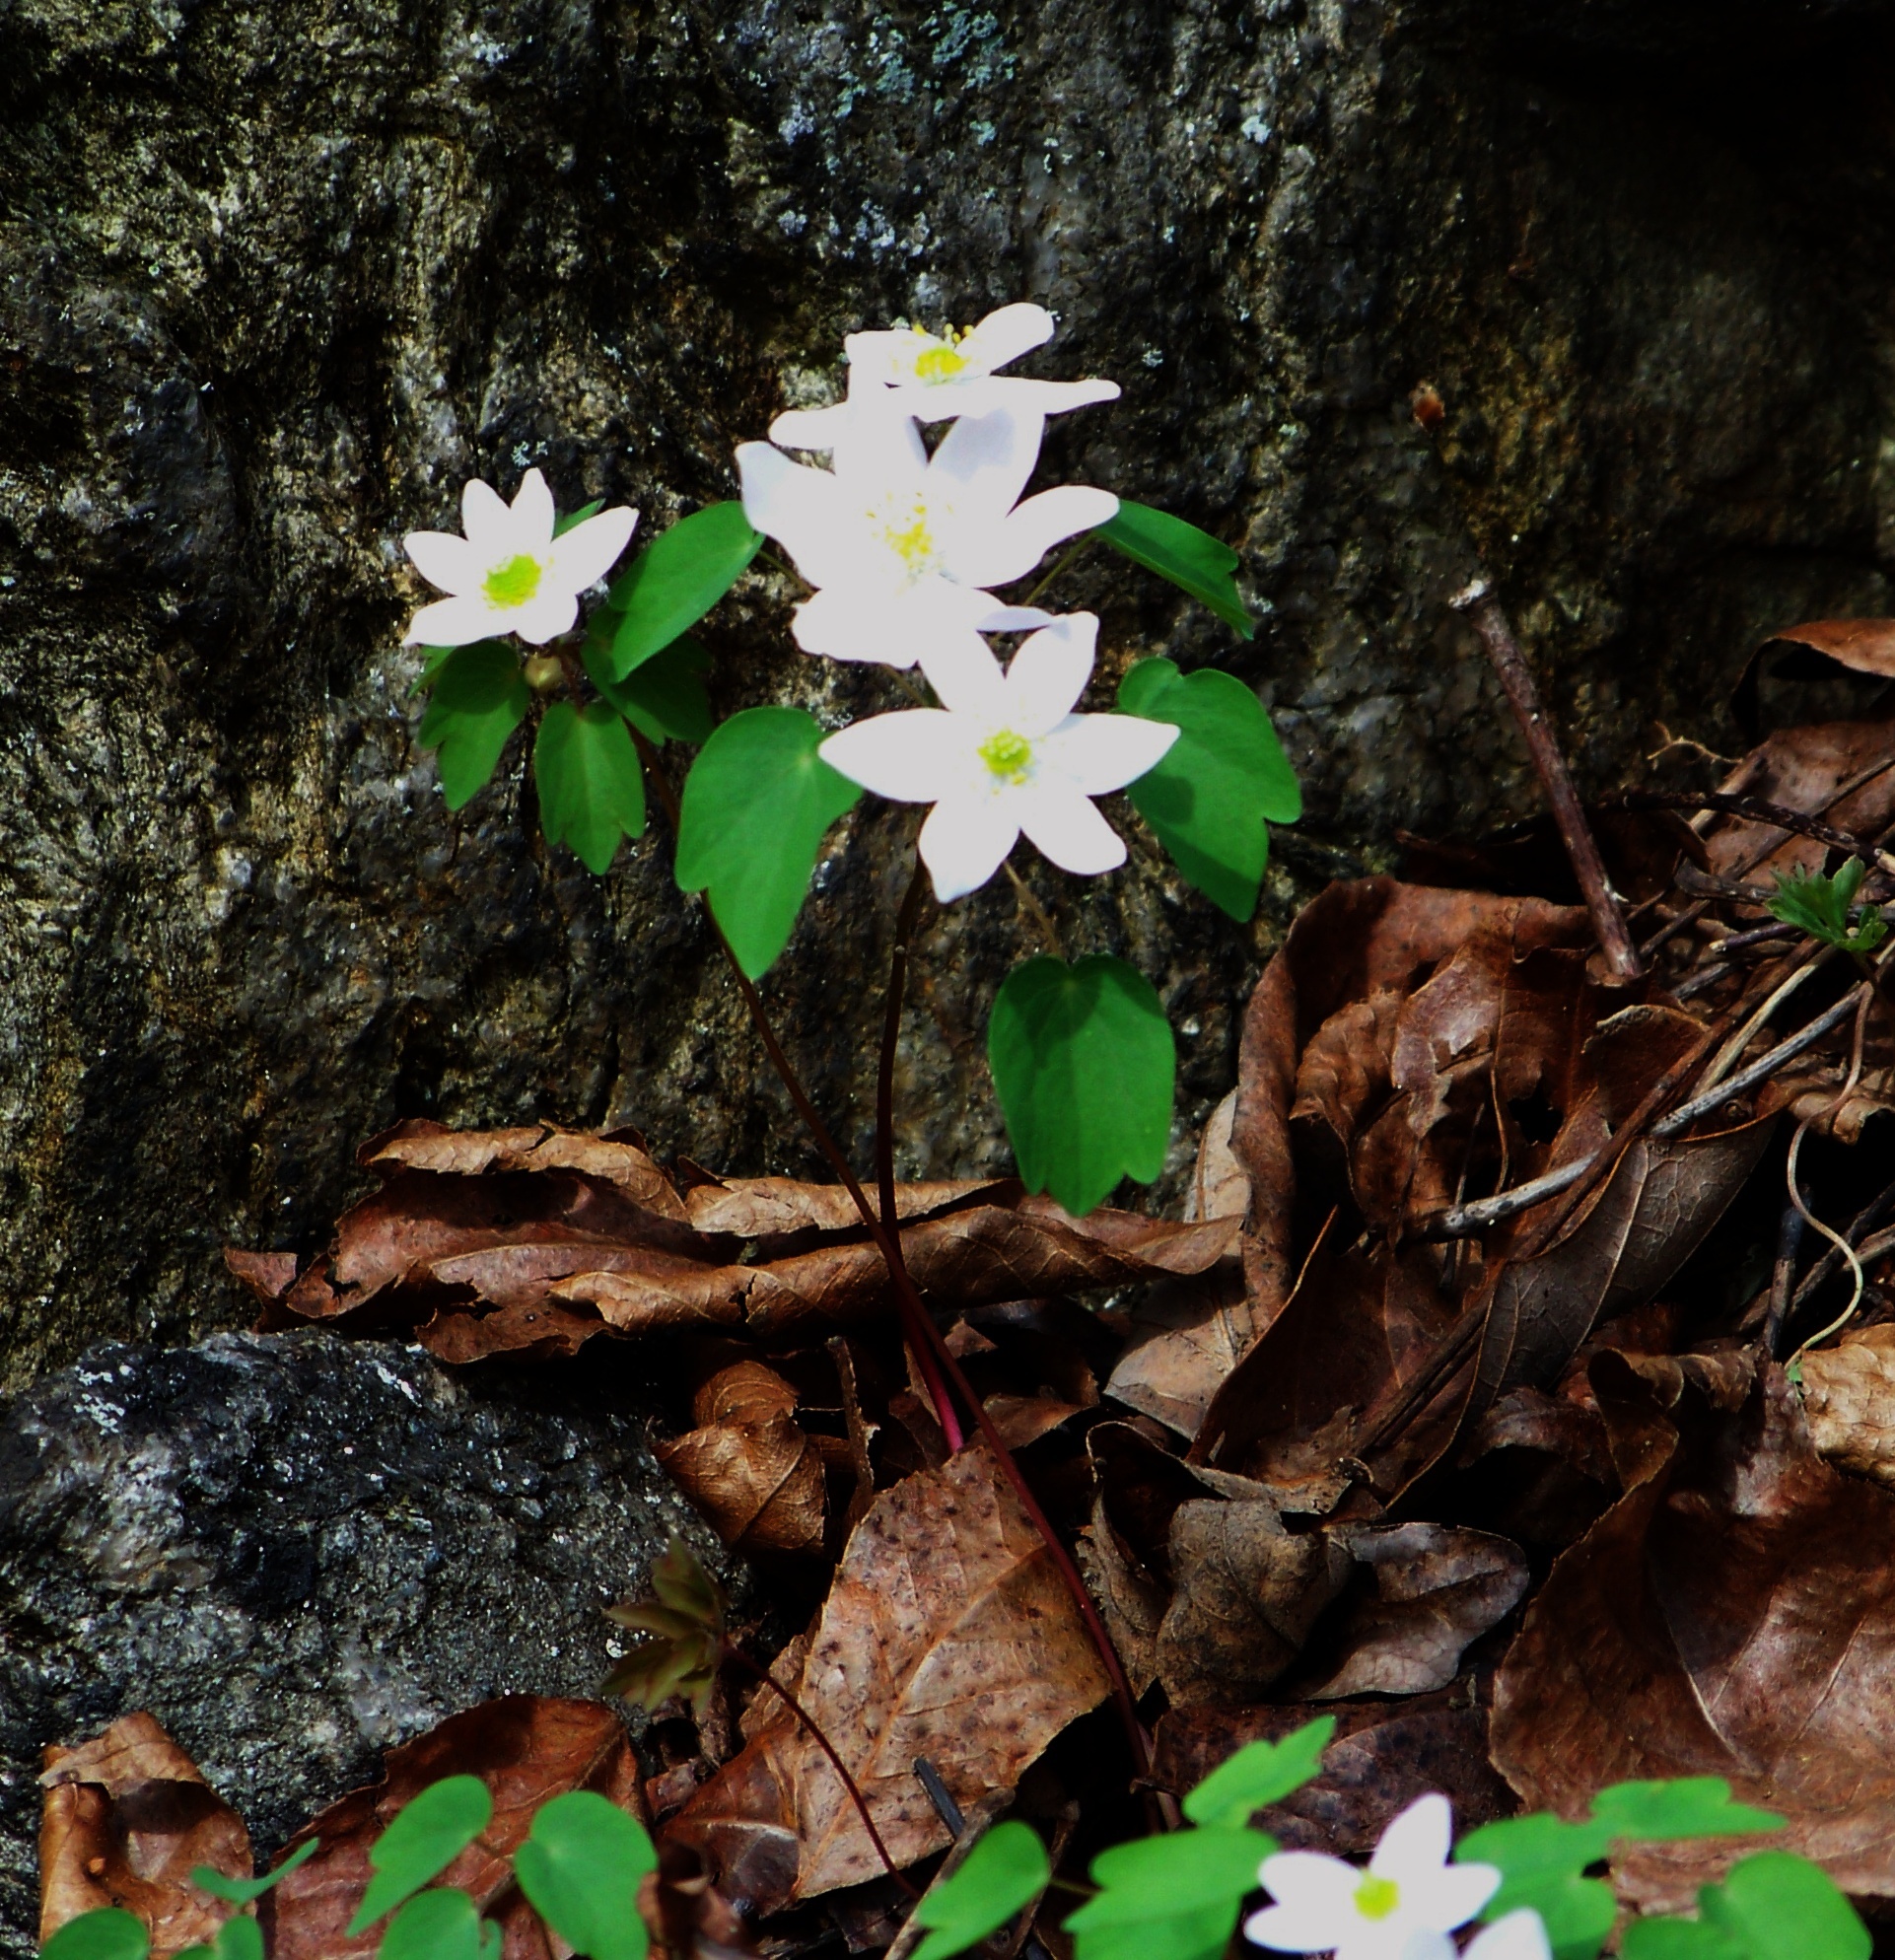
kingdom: Plantae
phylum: Tracheophyta
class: Magnoliopsida
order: Ranunculales
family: Ranunculaceae
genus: Thalictrum
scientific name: Thalictrum thalictroides
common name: Rue-anemone
